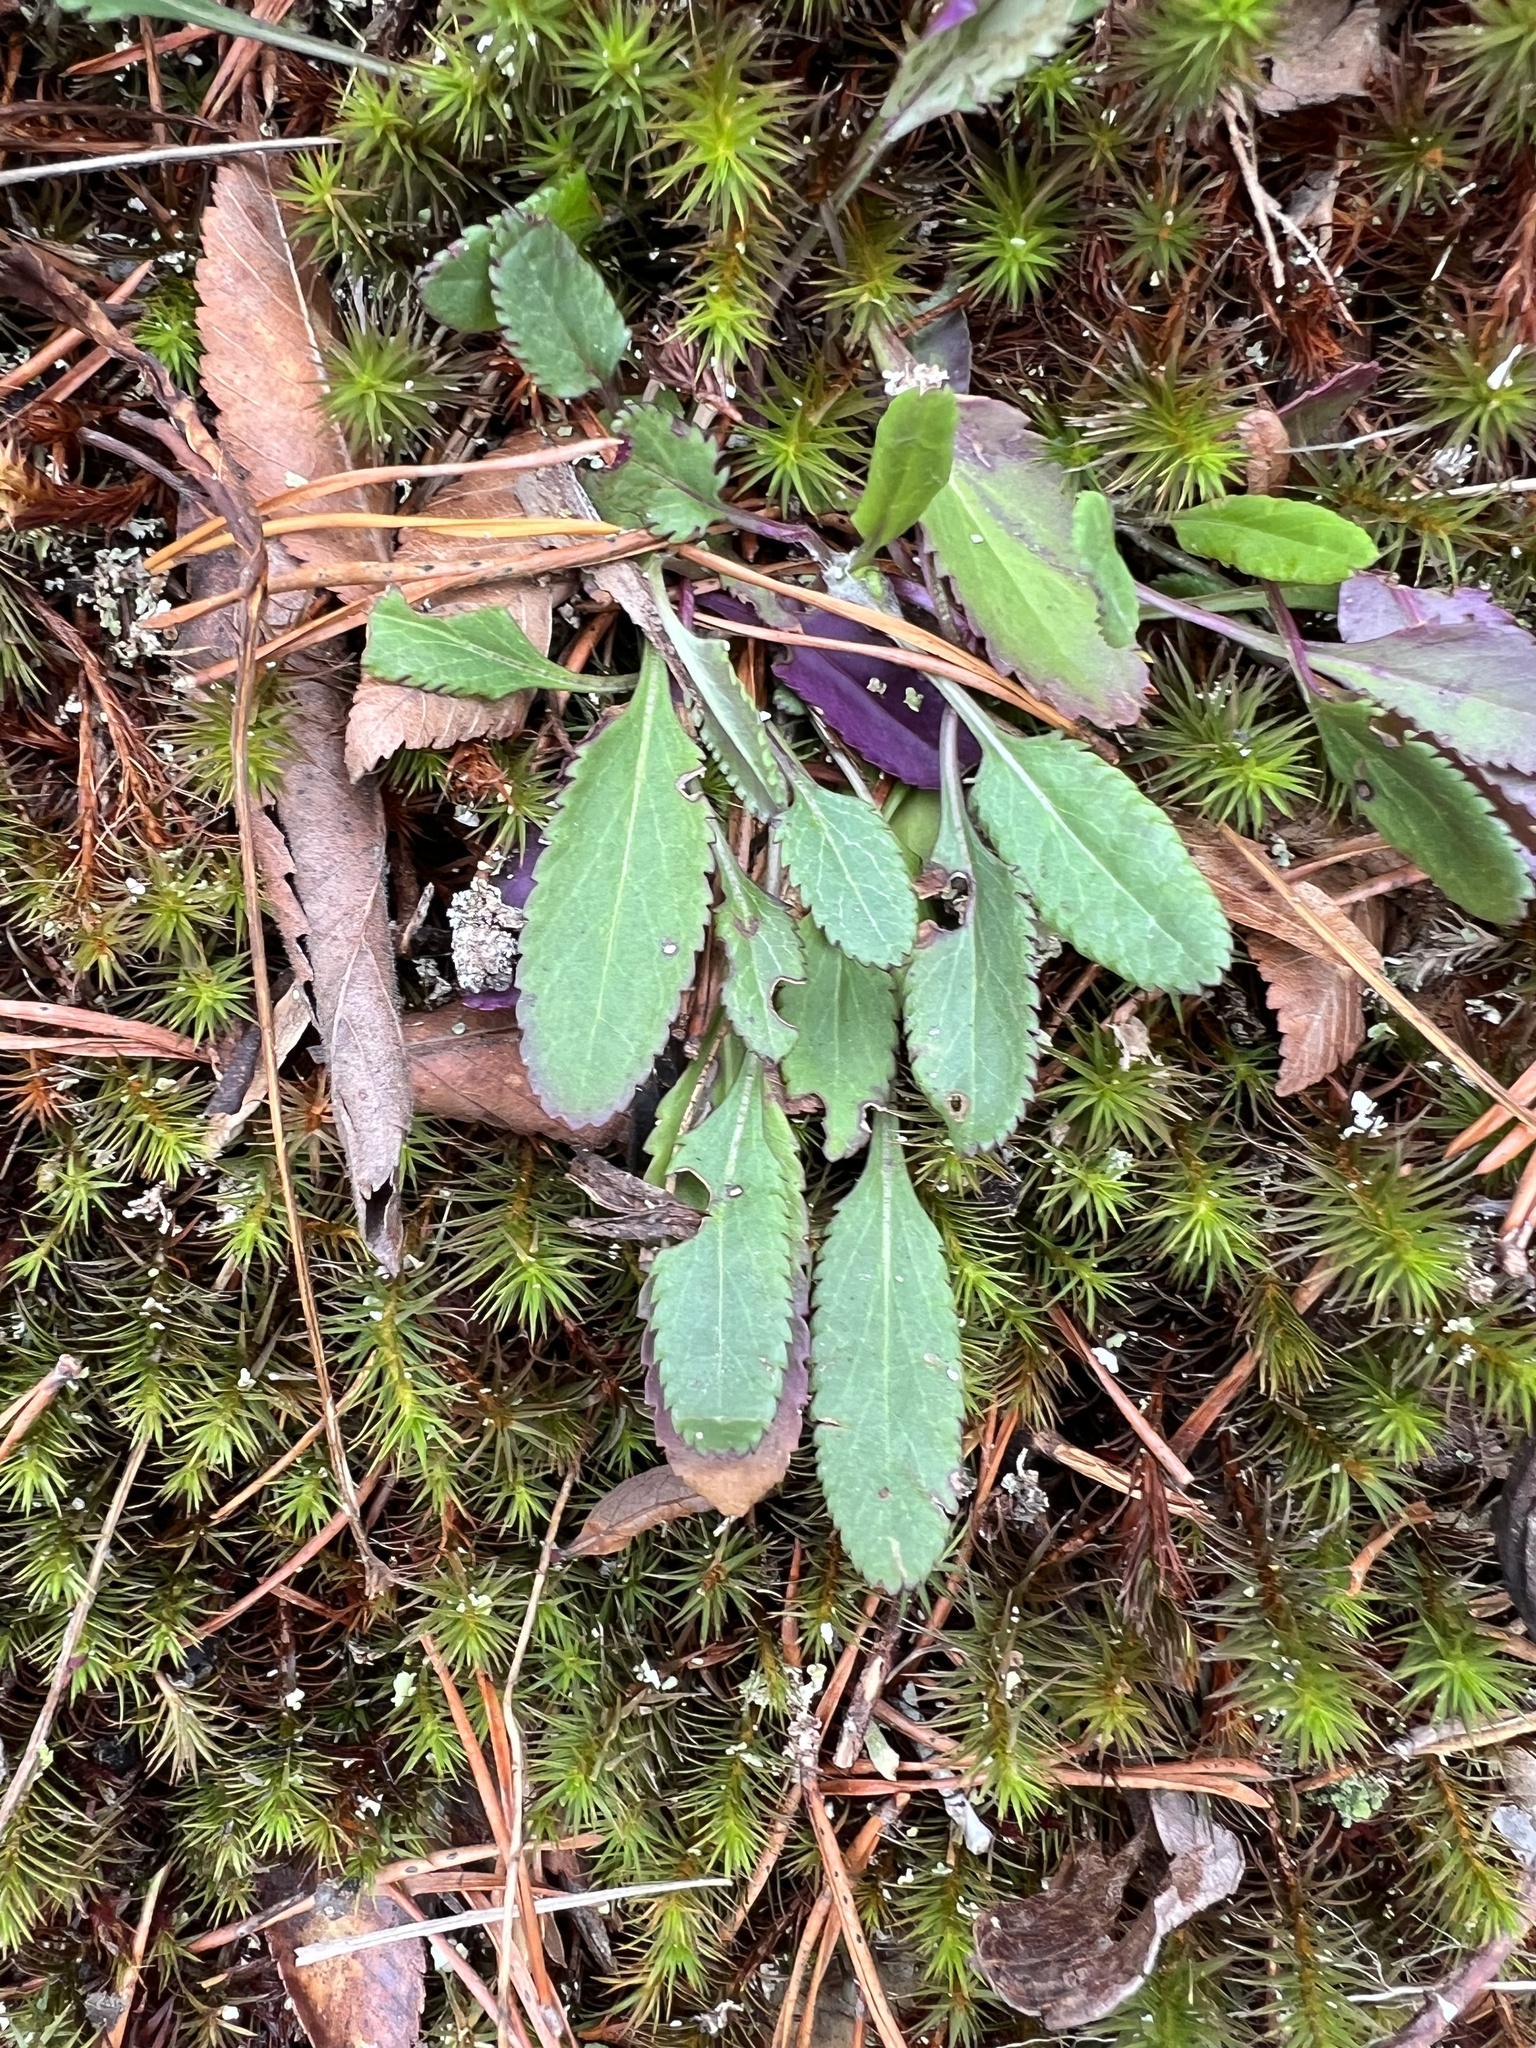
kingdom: Plantae
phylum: Tracheophyta
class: Magnoliopsida
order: Asterales
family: Asteraceae
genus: Packera
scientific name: Packera anonyma
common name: Small ragwort
